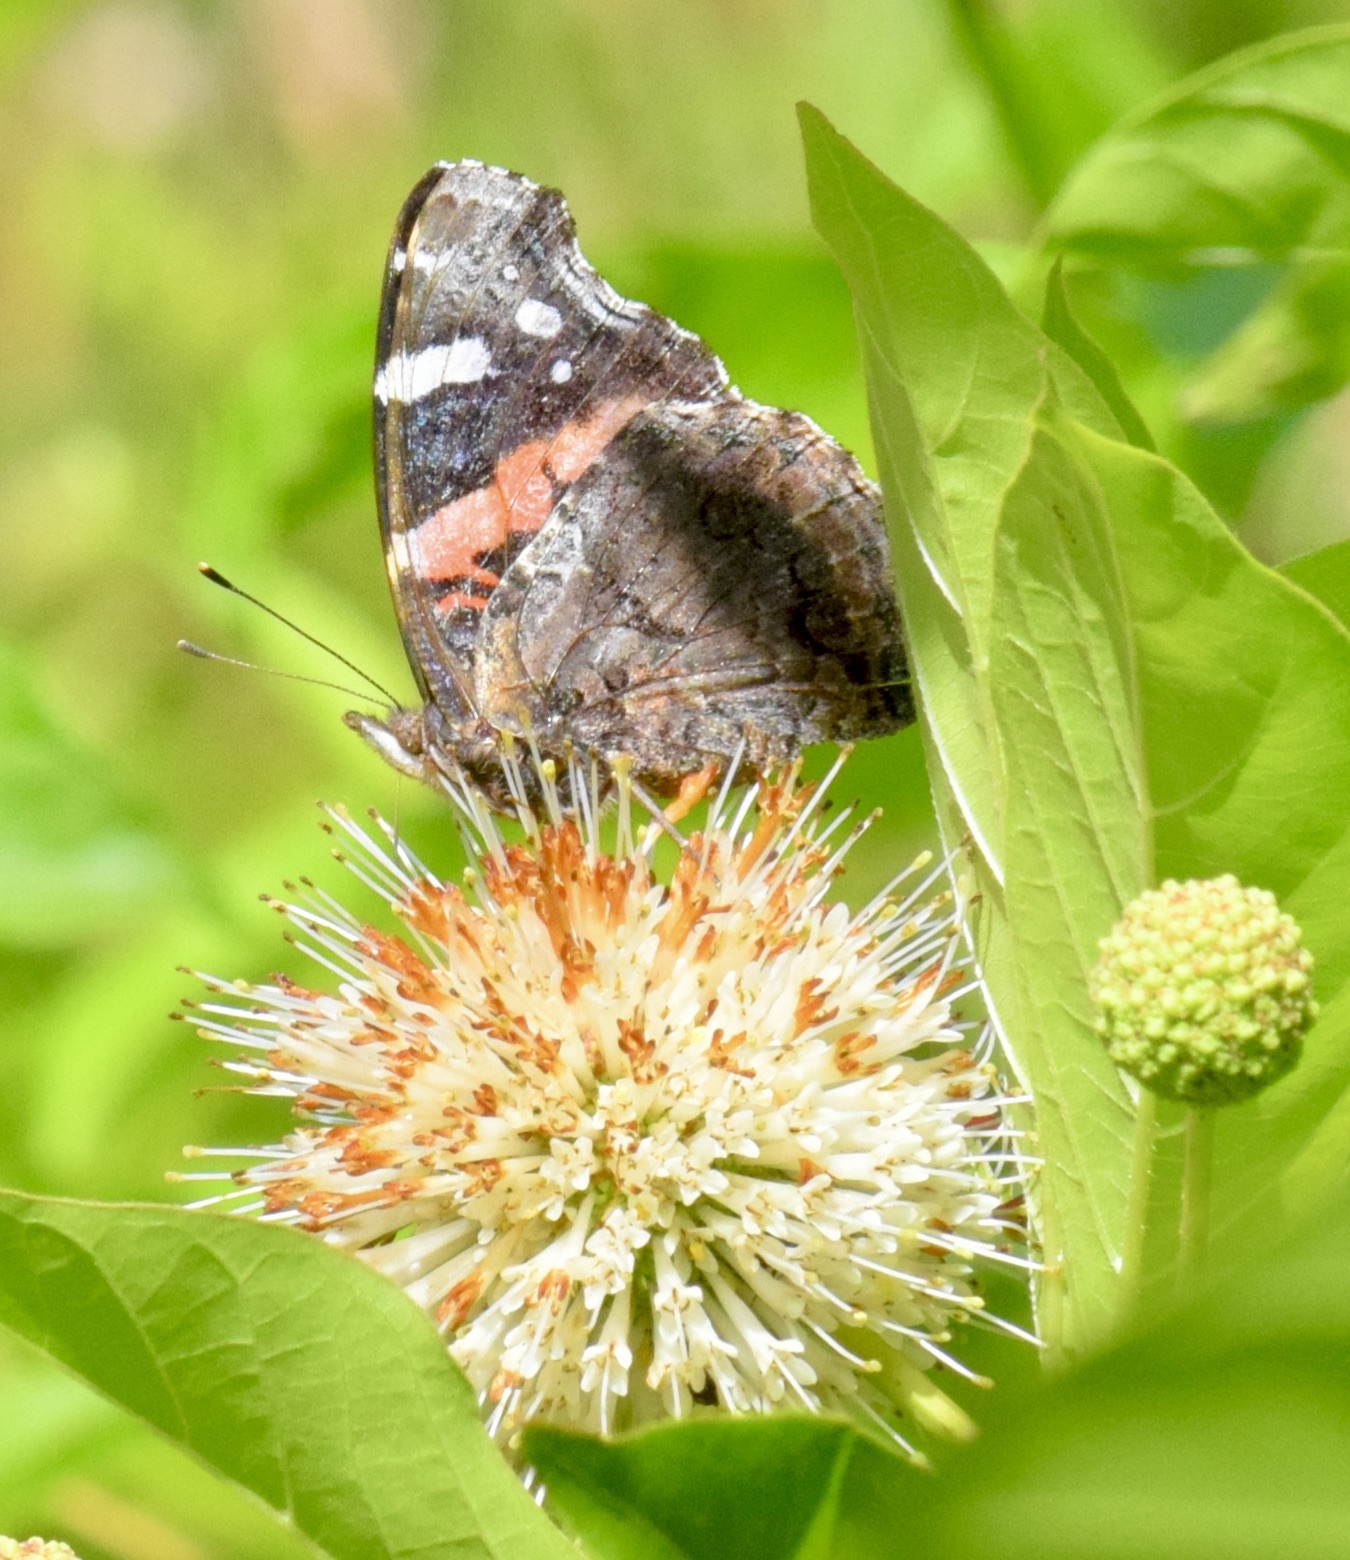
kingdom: Animalia
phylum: Arthropoda
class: Insecta
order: Lepidoptera
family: Nymphalidae
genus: Vanessa
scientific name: Vanessa atalanta
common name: Red admiral
